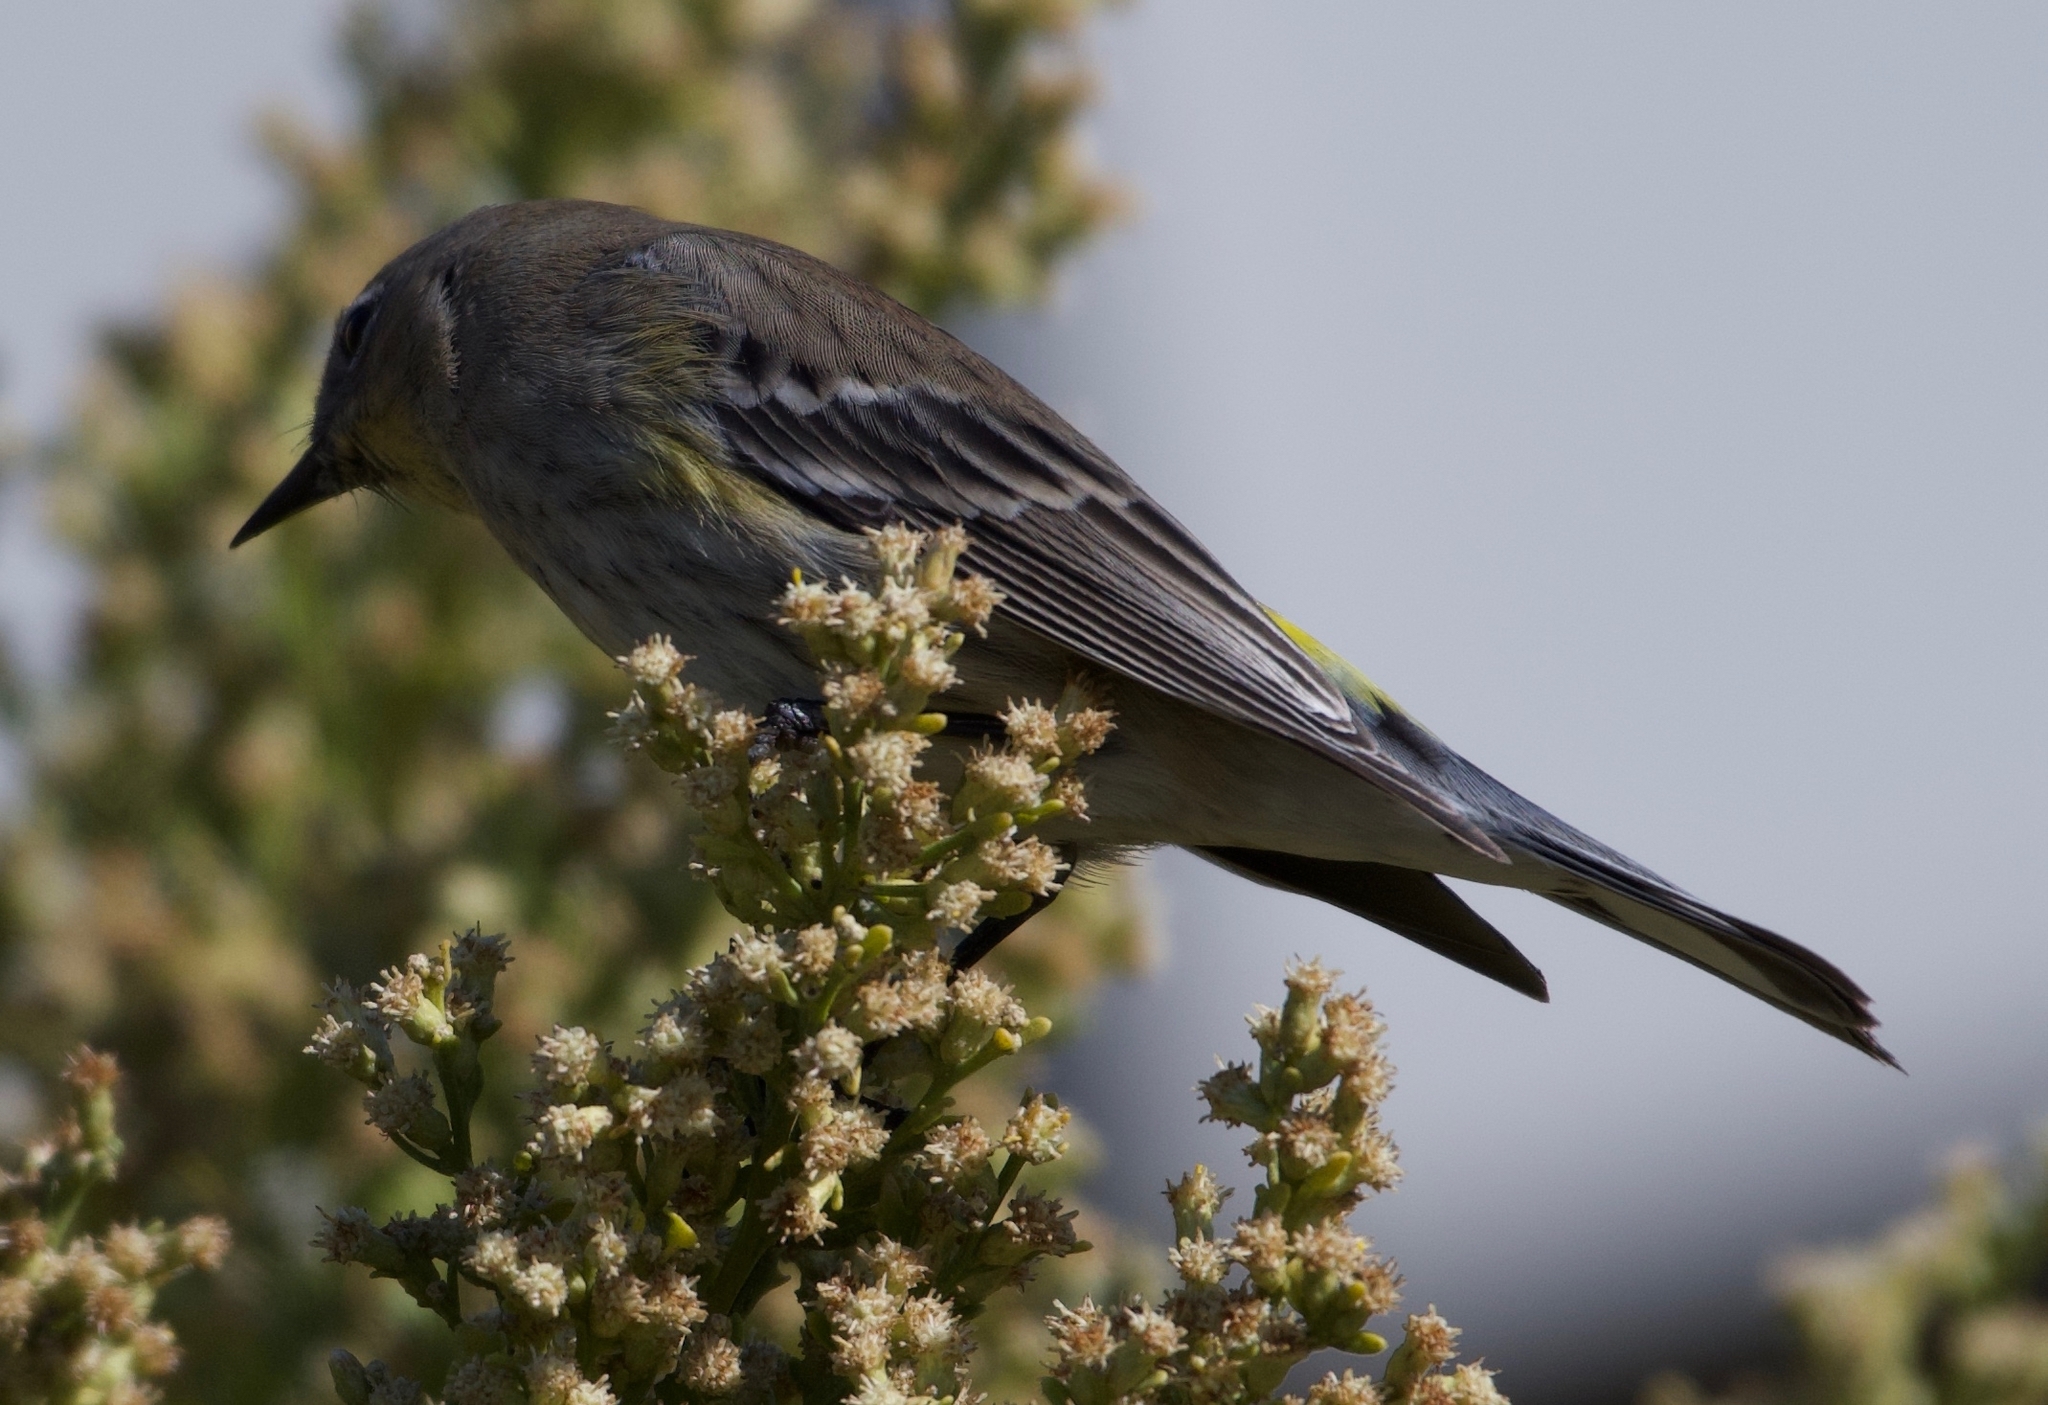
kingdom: Animalia
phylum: Chordata
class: Aves
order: Passeriformes
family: Parulidae
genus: Setophaga
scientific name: Setophaga coronata
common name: Myrtle warbler
